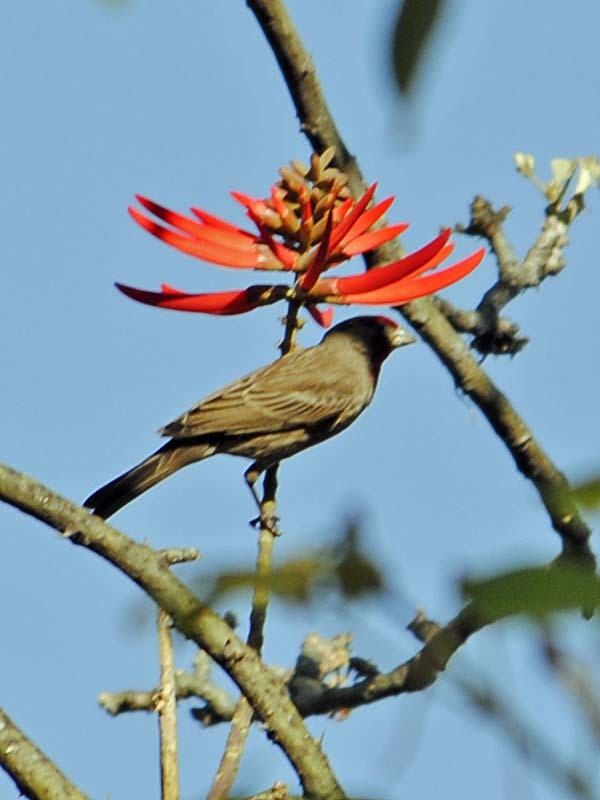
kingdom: Animalia
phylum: Chordata
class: Aves
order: Passeriformes
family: Fringillidae
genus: Haemorhous
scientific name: Haemorhous mexicanus
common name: House finch
